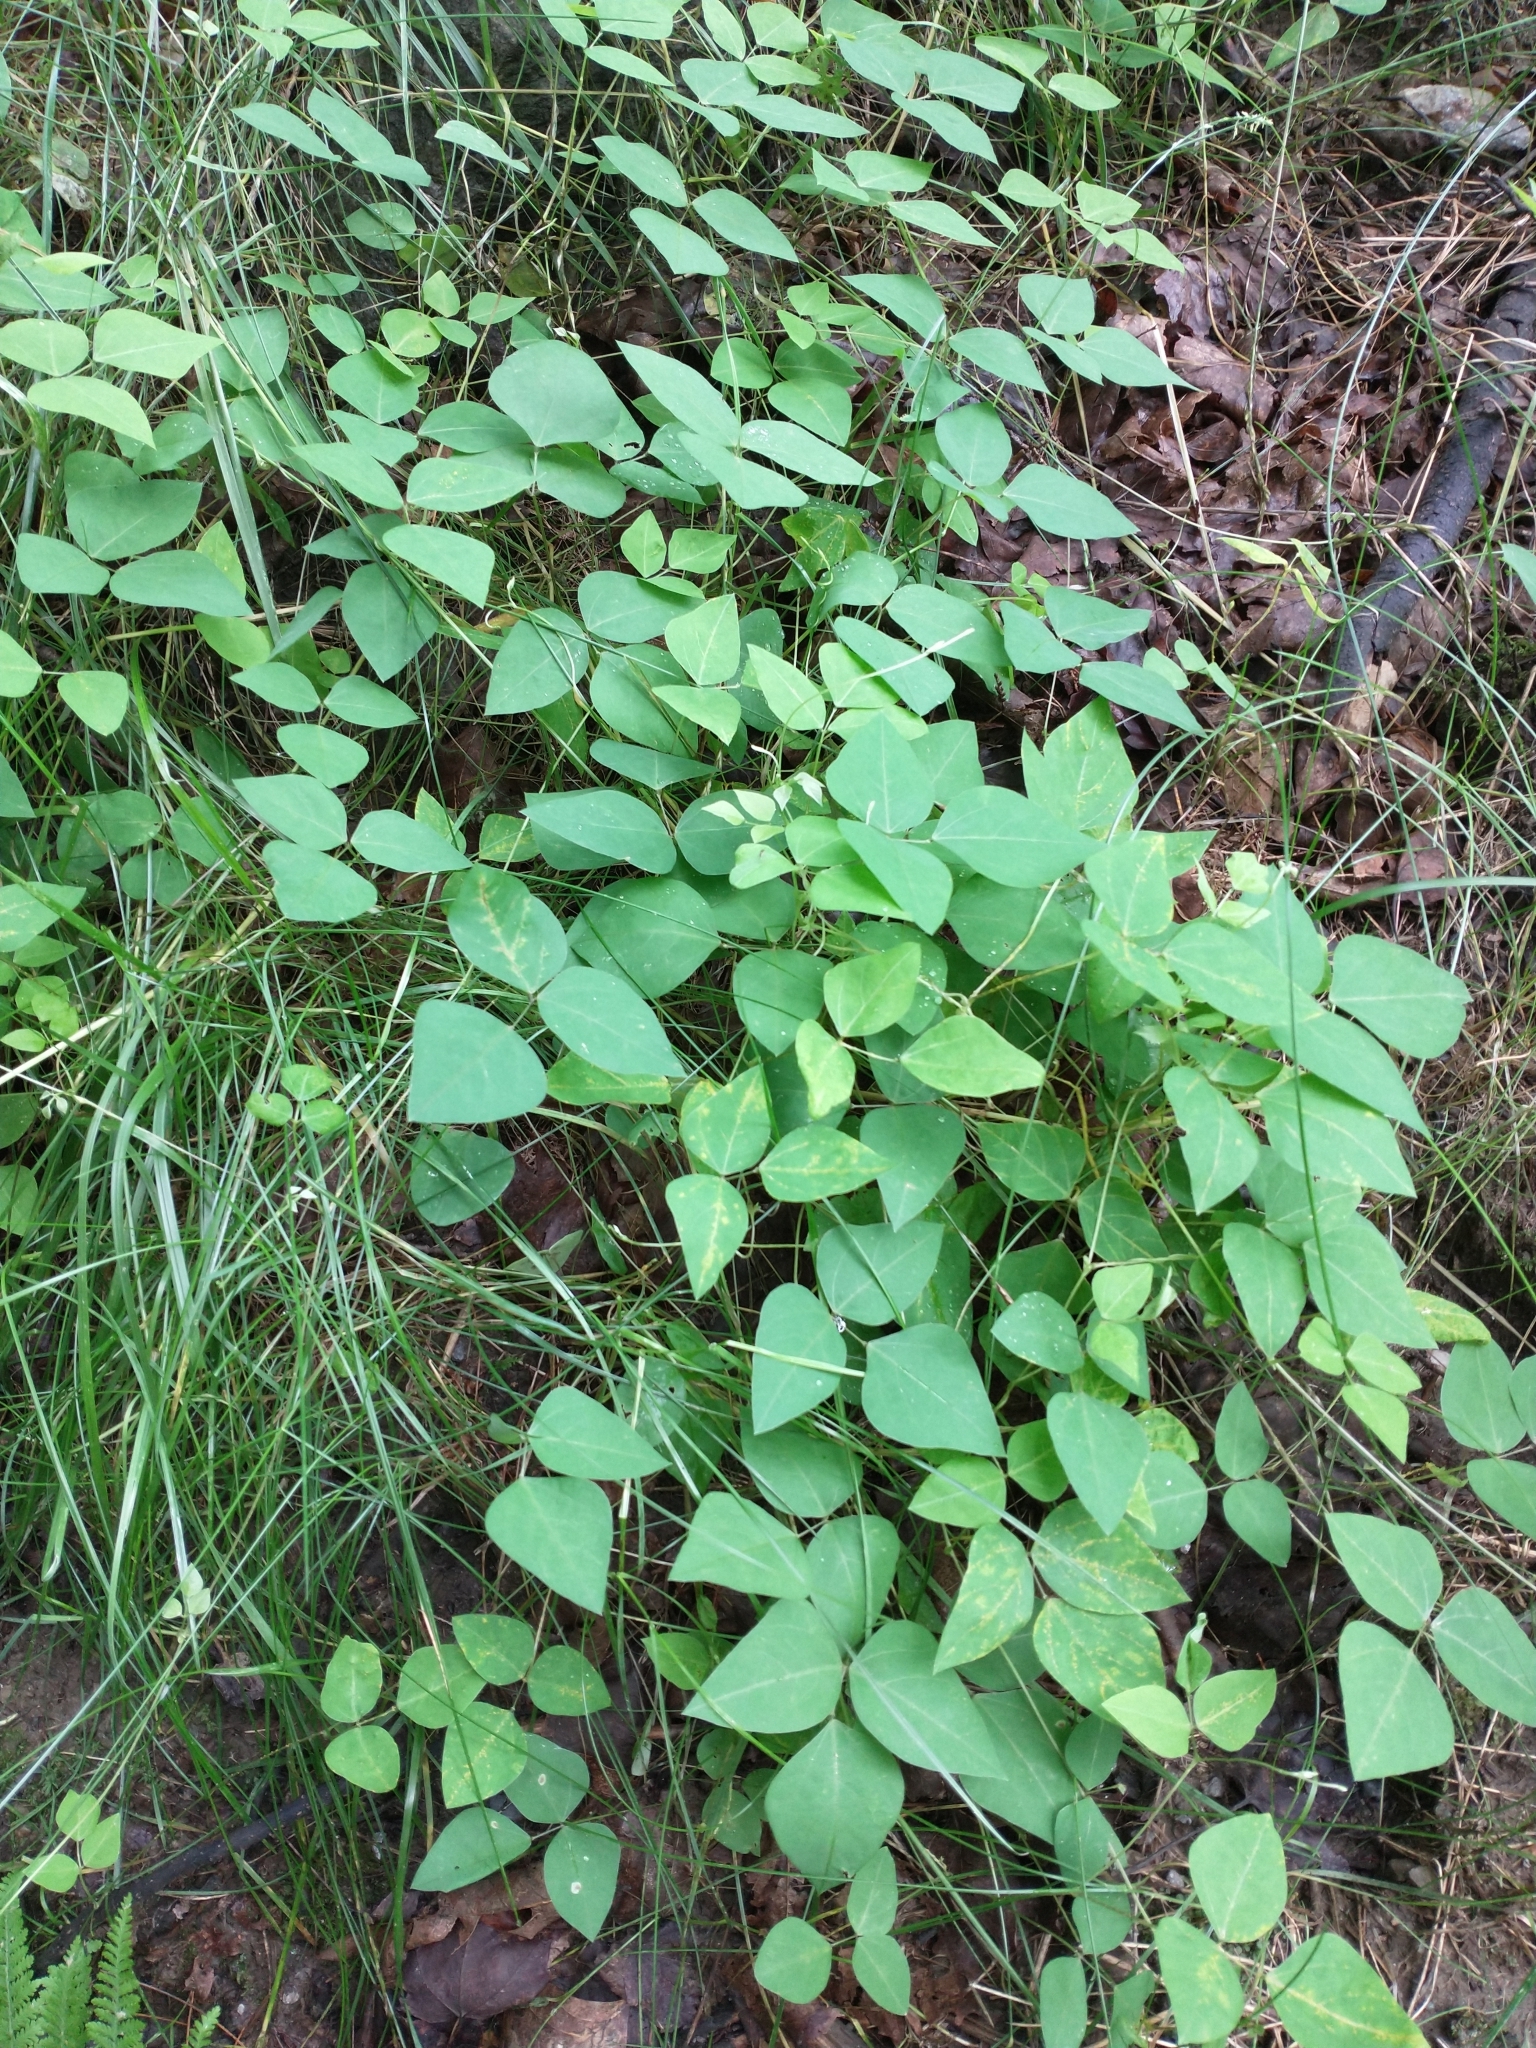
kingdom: Plantae
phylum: Tracheophyta
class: Magnoliopsida
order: Fabales
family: Fabaceae
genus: Amphicarpaea
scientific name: Amphicarpaea bracteata
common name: American hog peanut
